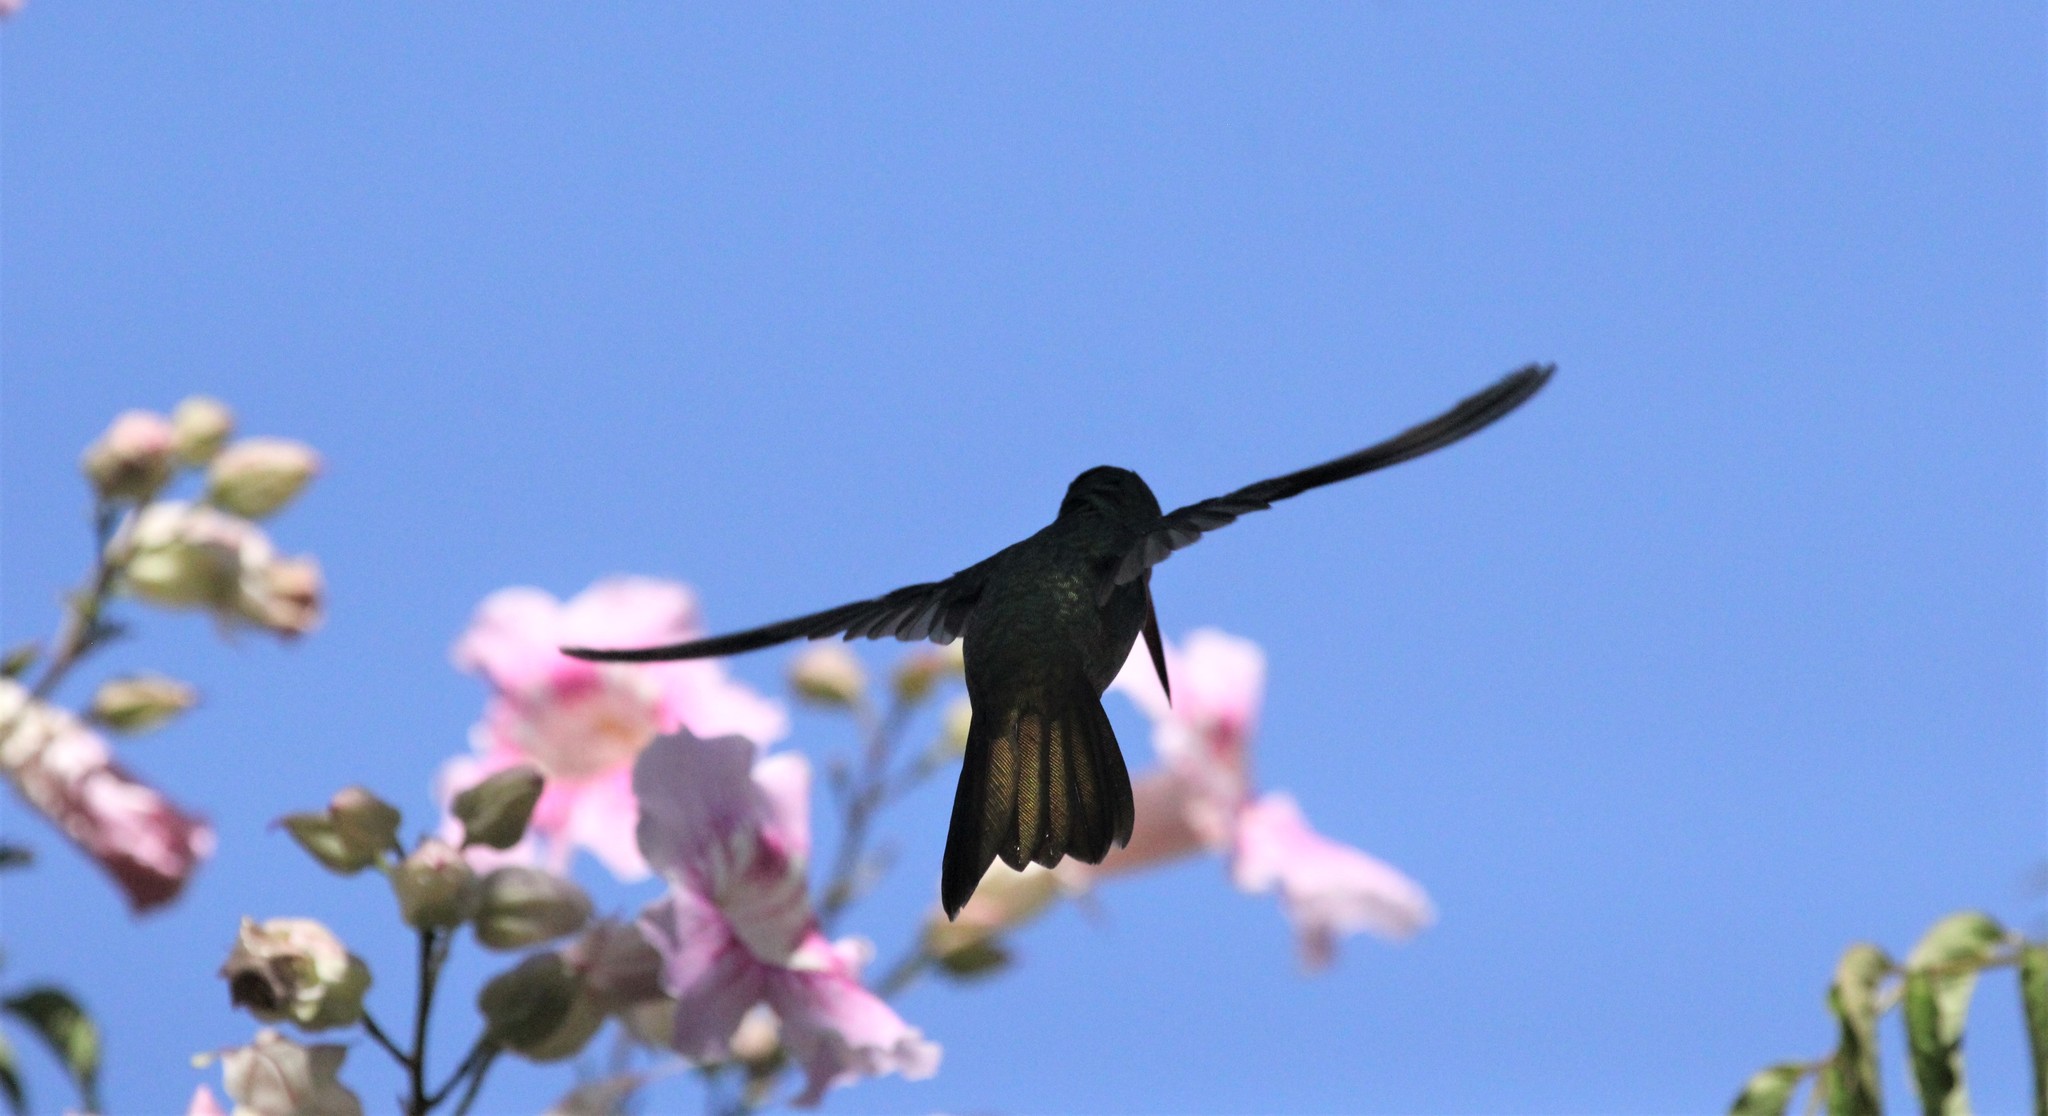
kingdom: Animalia
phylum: Chordata
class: Aves
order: Apodiformes
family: Trochilidae
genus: Hylocharis
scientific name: Hylocharis chrysura
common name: Gilded sapphire
